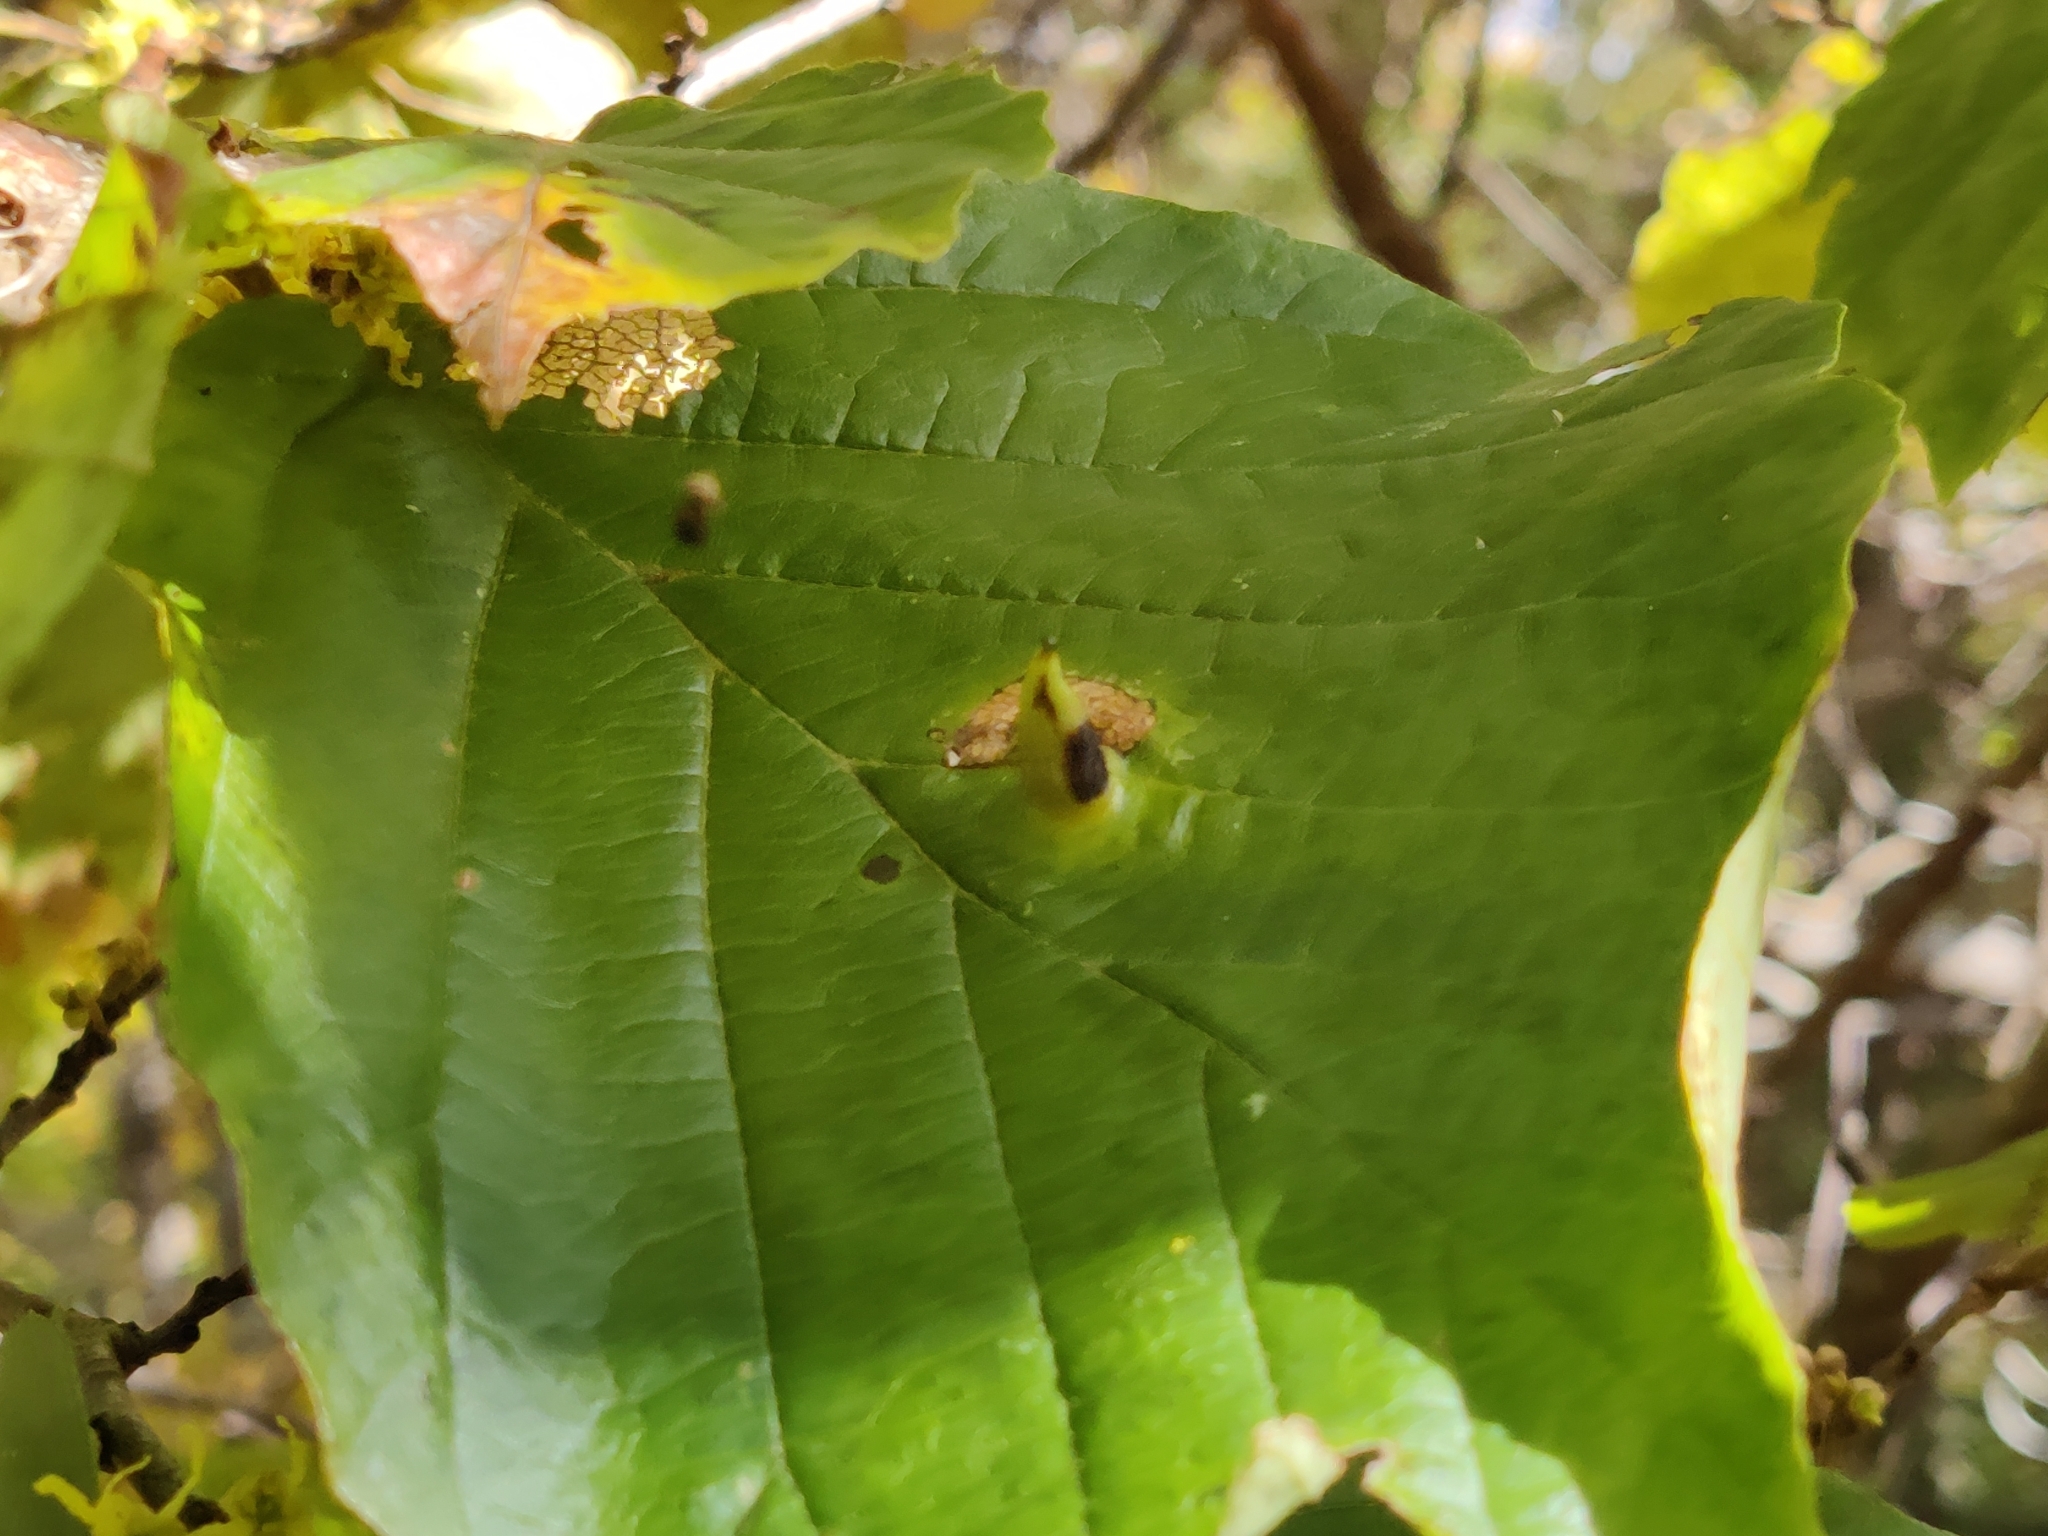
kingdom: Animalia
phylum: Arthropoda
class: Insecta
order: Hemiptera
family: Aphididae
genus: Hormaphis
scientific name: Hormaphis hamamelidis
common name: Witch-hazel cone gall aphid
